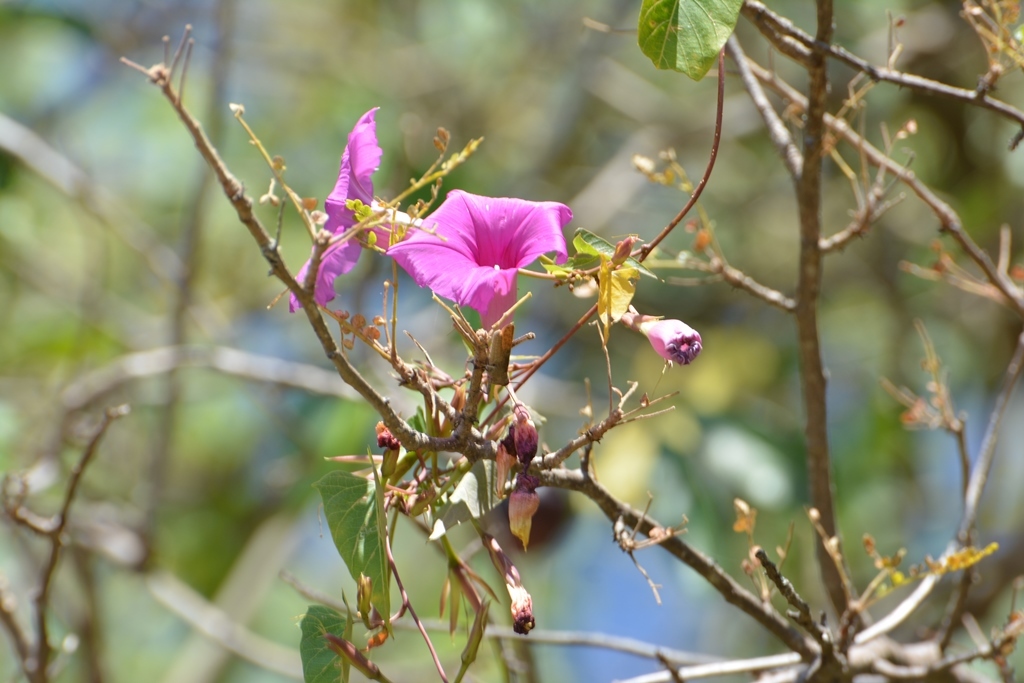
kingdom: Plantae
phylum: Tracheophyta
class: Magnoliopsida
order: Solanales
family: Convolvulaceae
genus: Ipomoea
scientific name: Ipomoea bernoulliana
